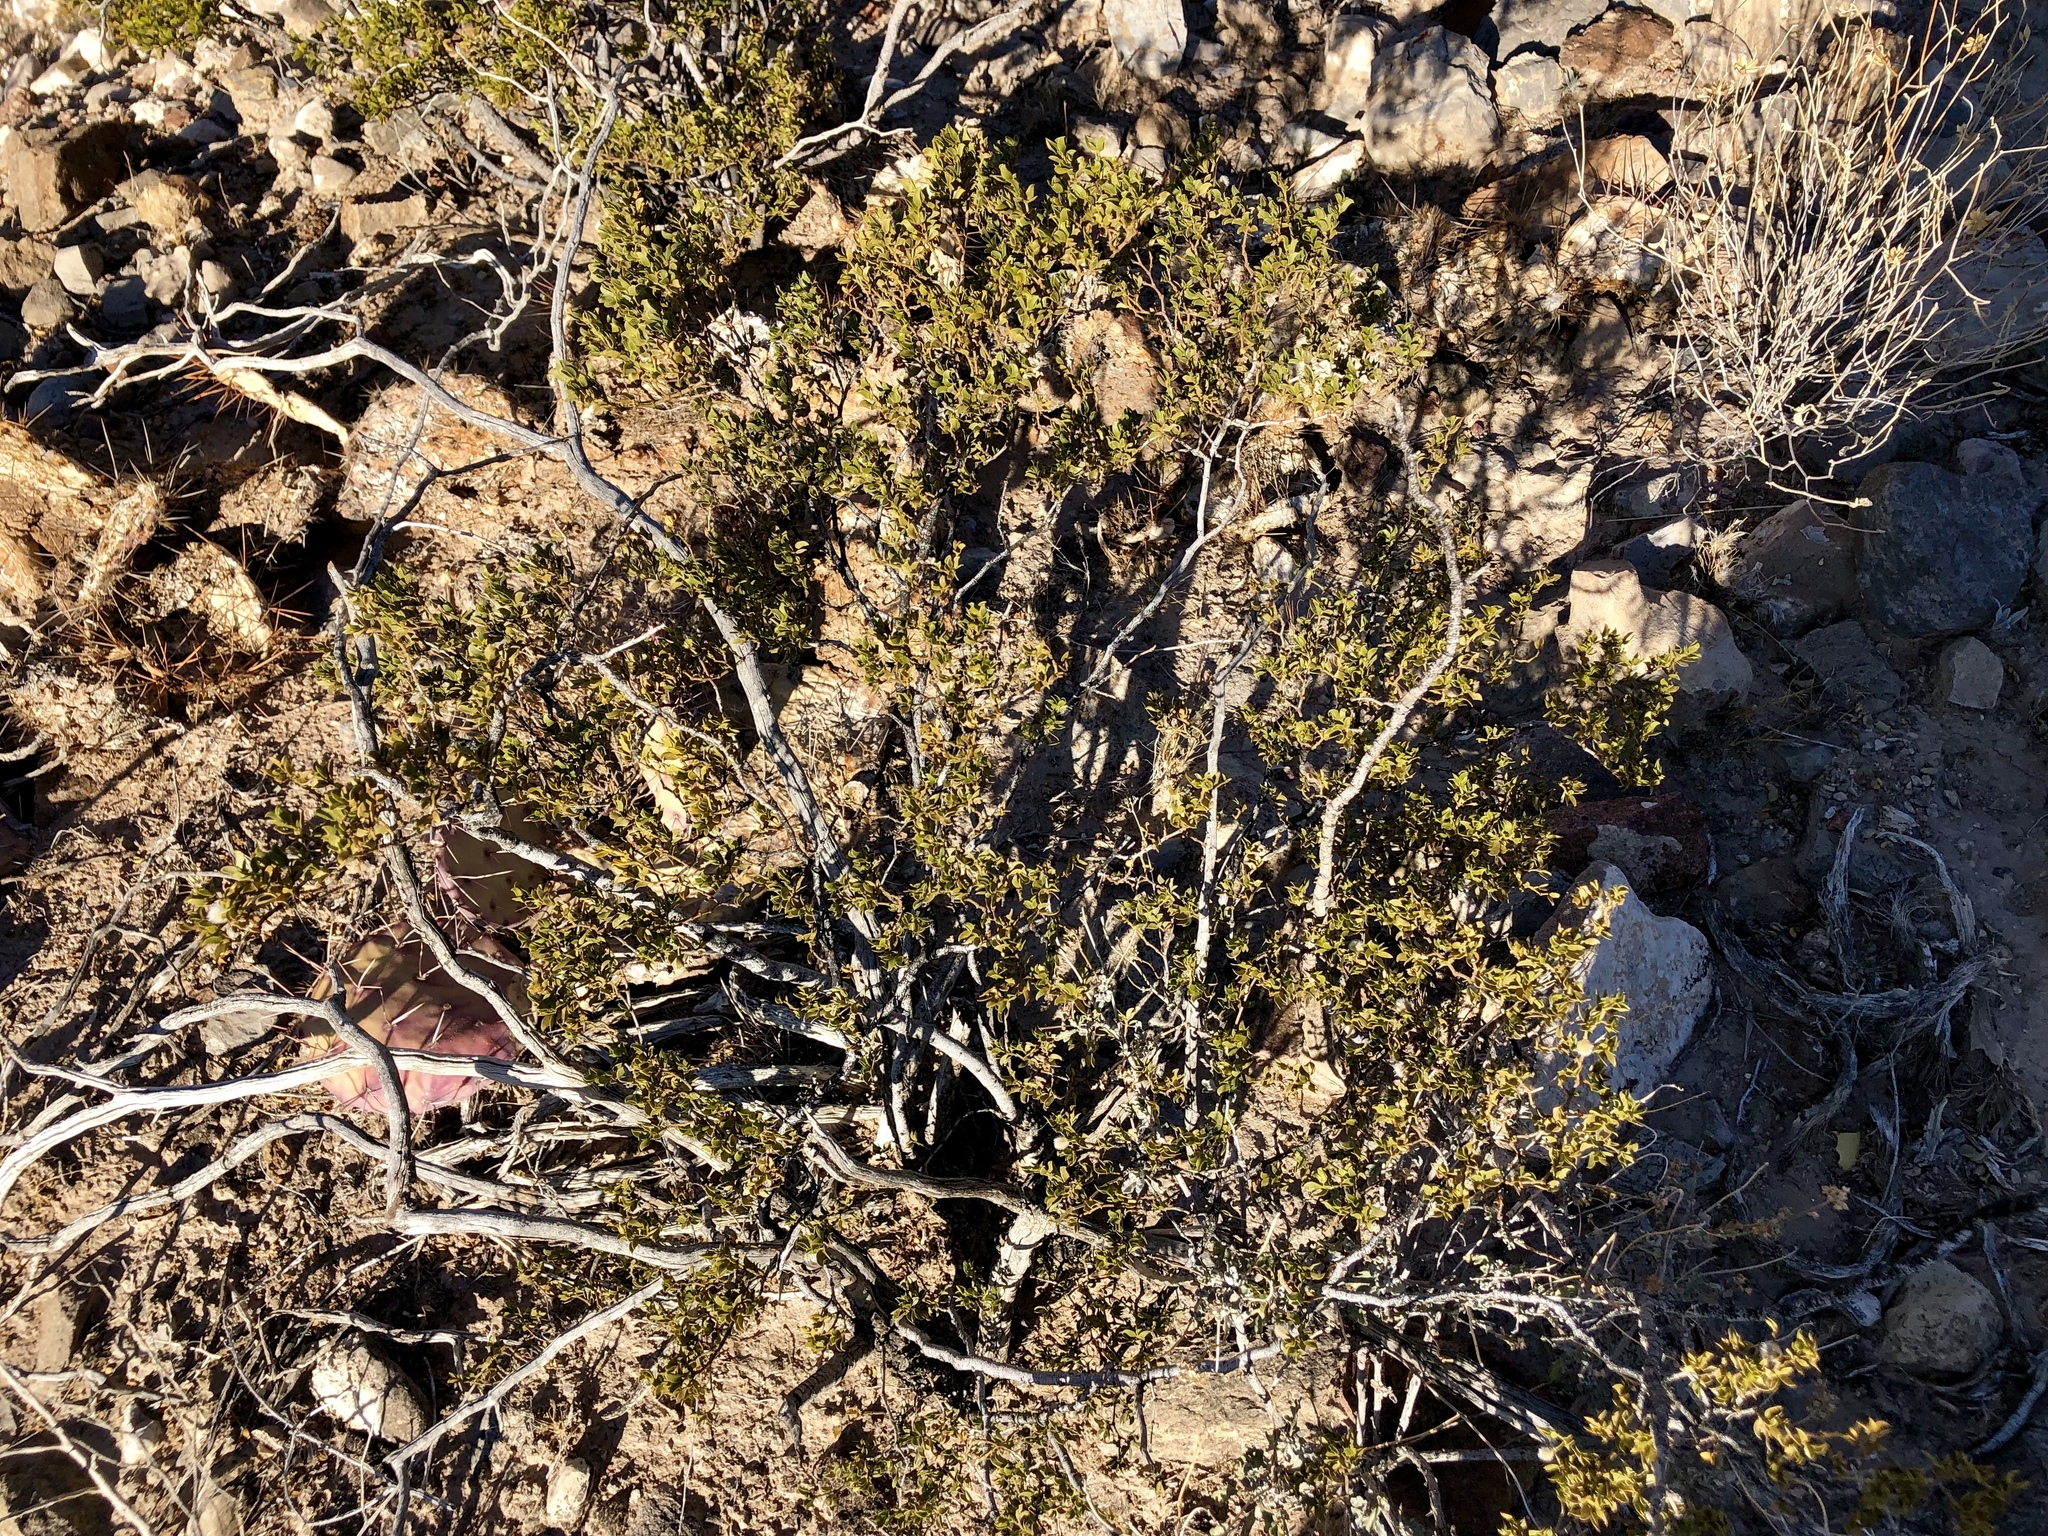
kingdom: Plantae
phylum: Tracheophyta
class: Magnoliopsida
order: Zygophyllales
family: Zygophyllaceae
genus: Larrea
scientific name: Larrea tridentata
